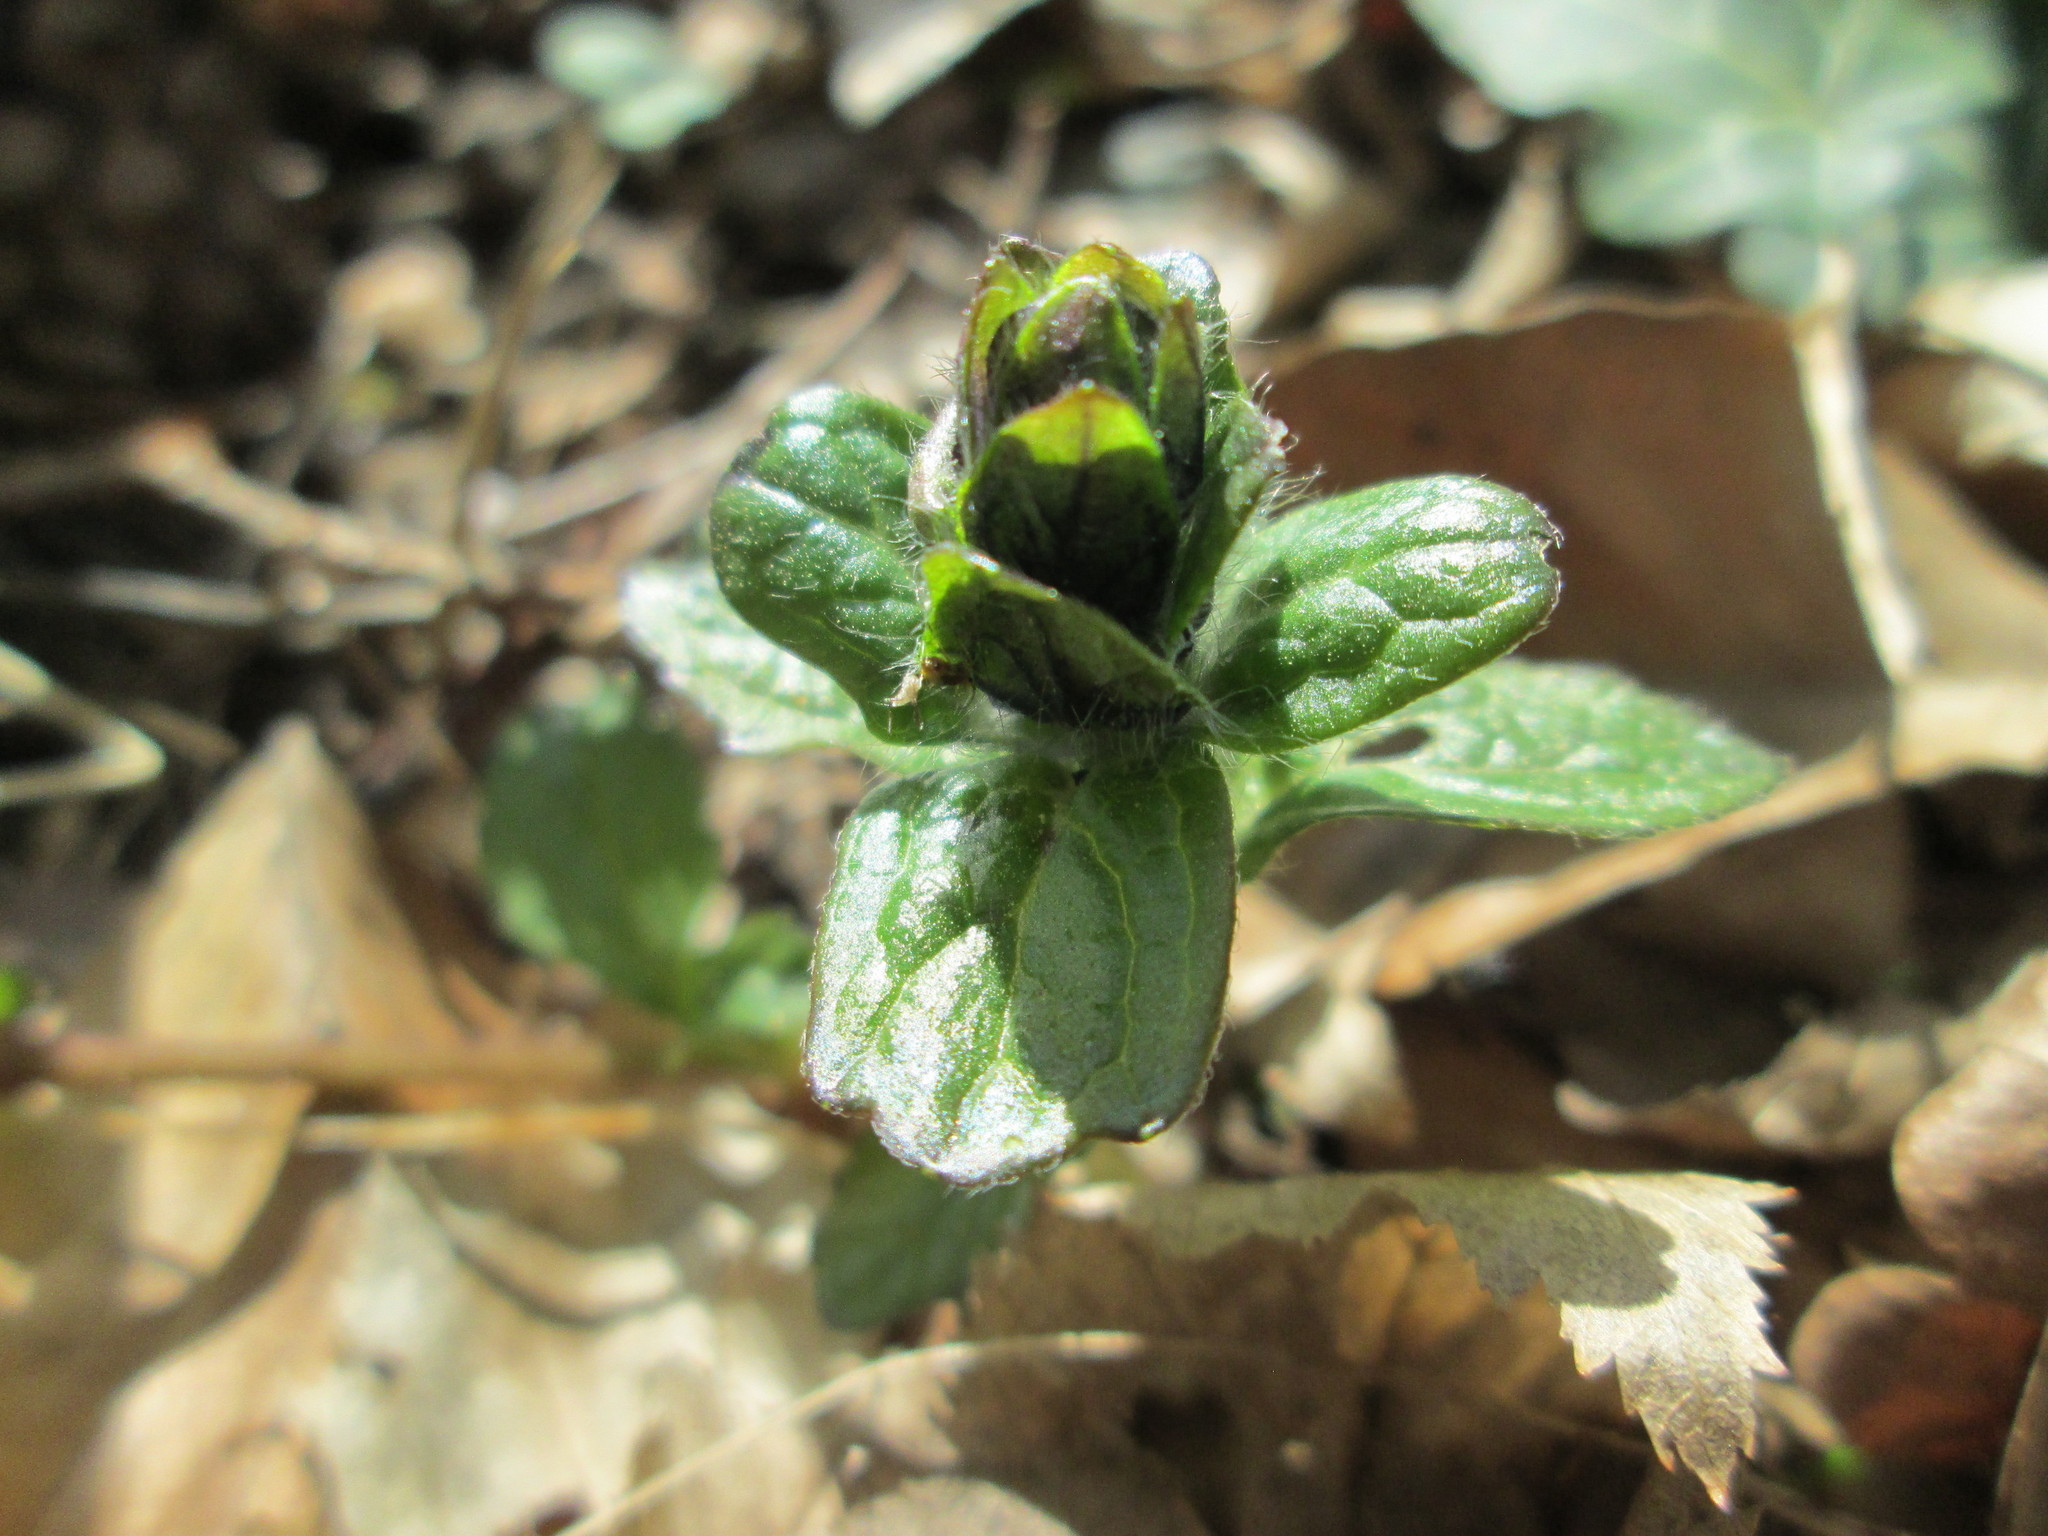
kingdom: Plantae
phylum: Tracheophyta
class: Magnoliopsida
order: Lamiales
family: Lamiaceae
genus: Ajuga
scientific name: Ajuga reptans
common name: Bugle
